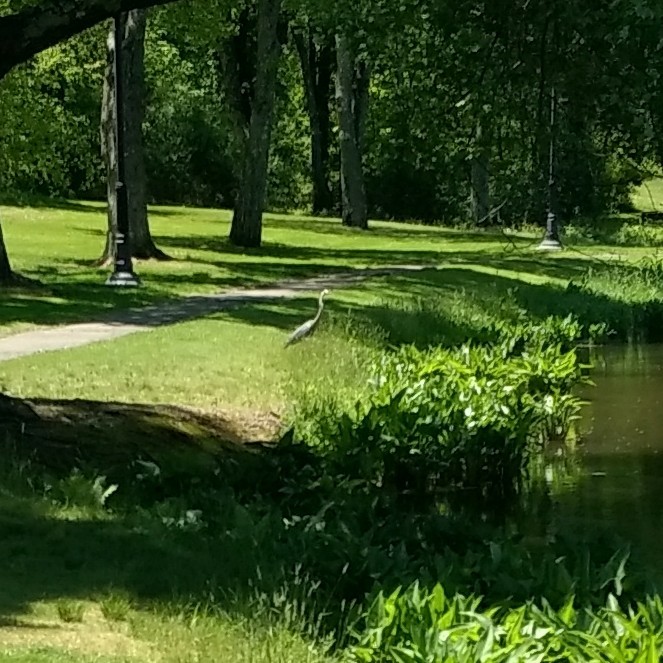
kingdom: Animalia
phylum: Chordata
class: Aves
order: Pelecaniformes
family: Ardeidae
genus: Ardea
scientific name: Ardea herodias
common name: Great blue heron
